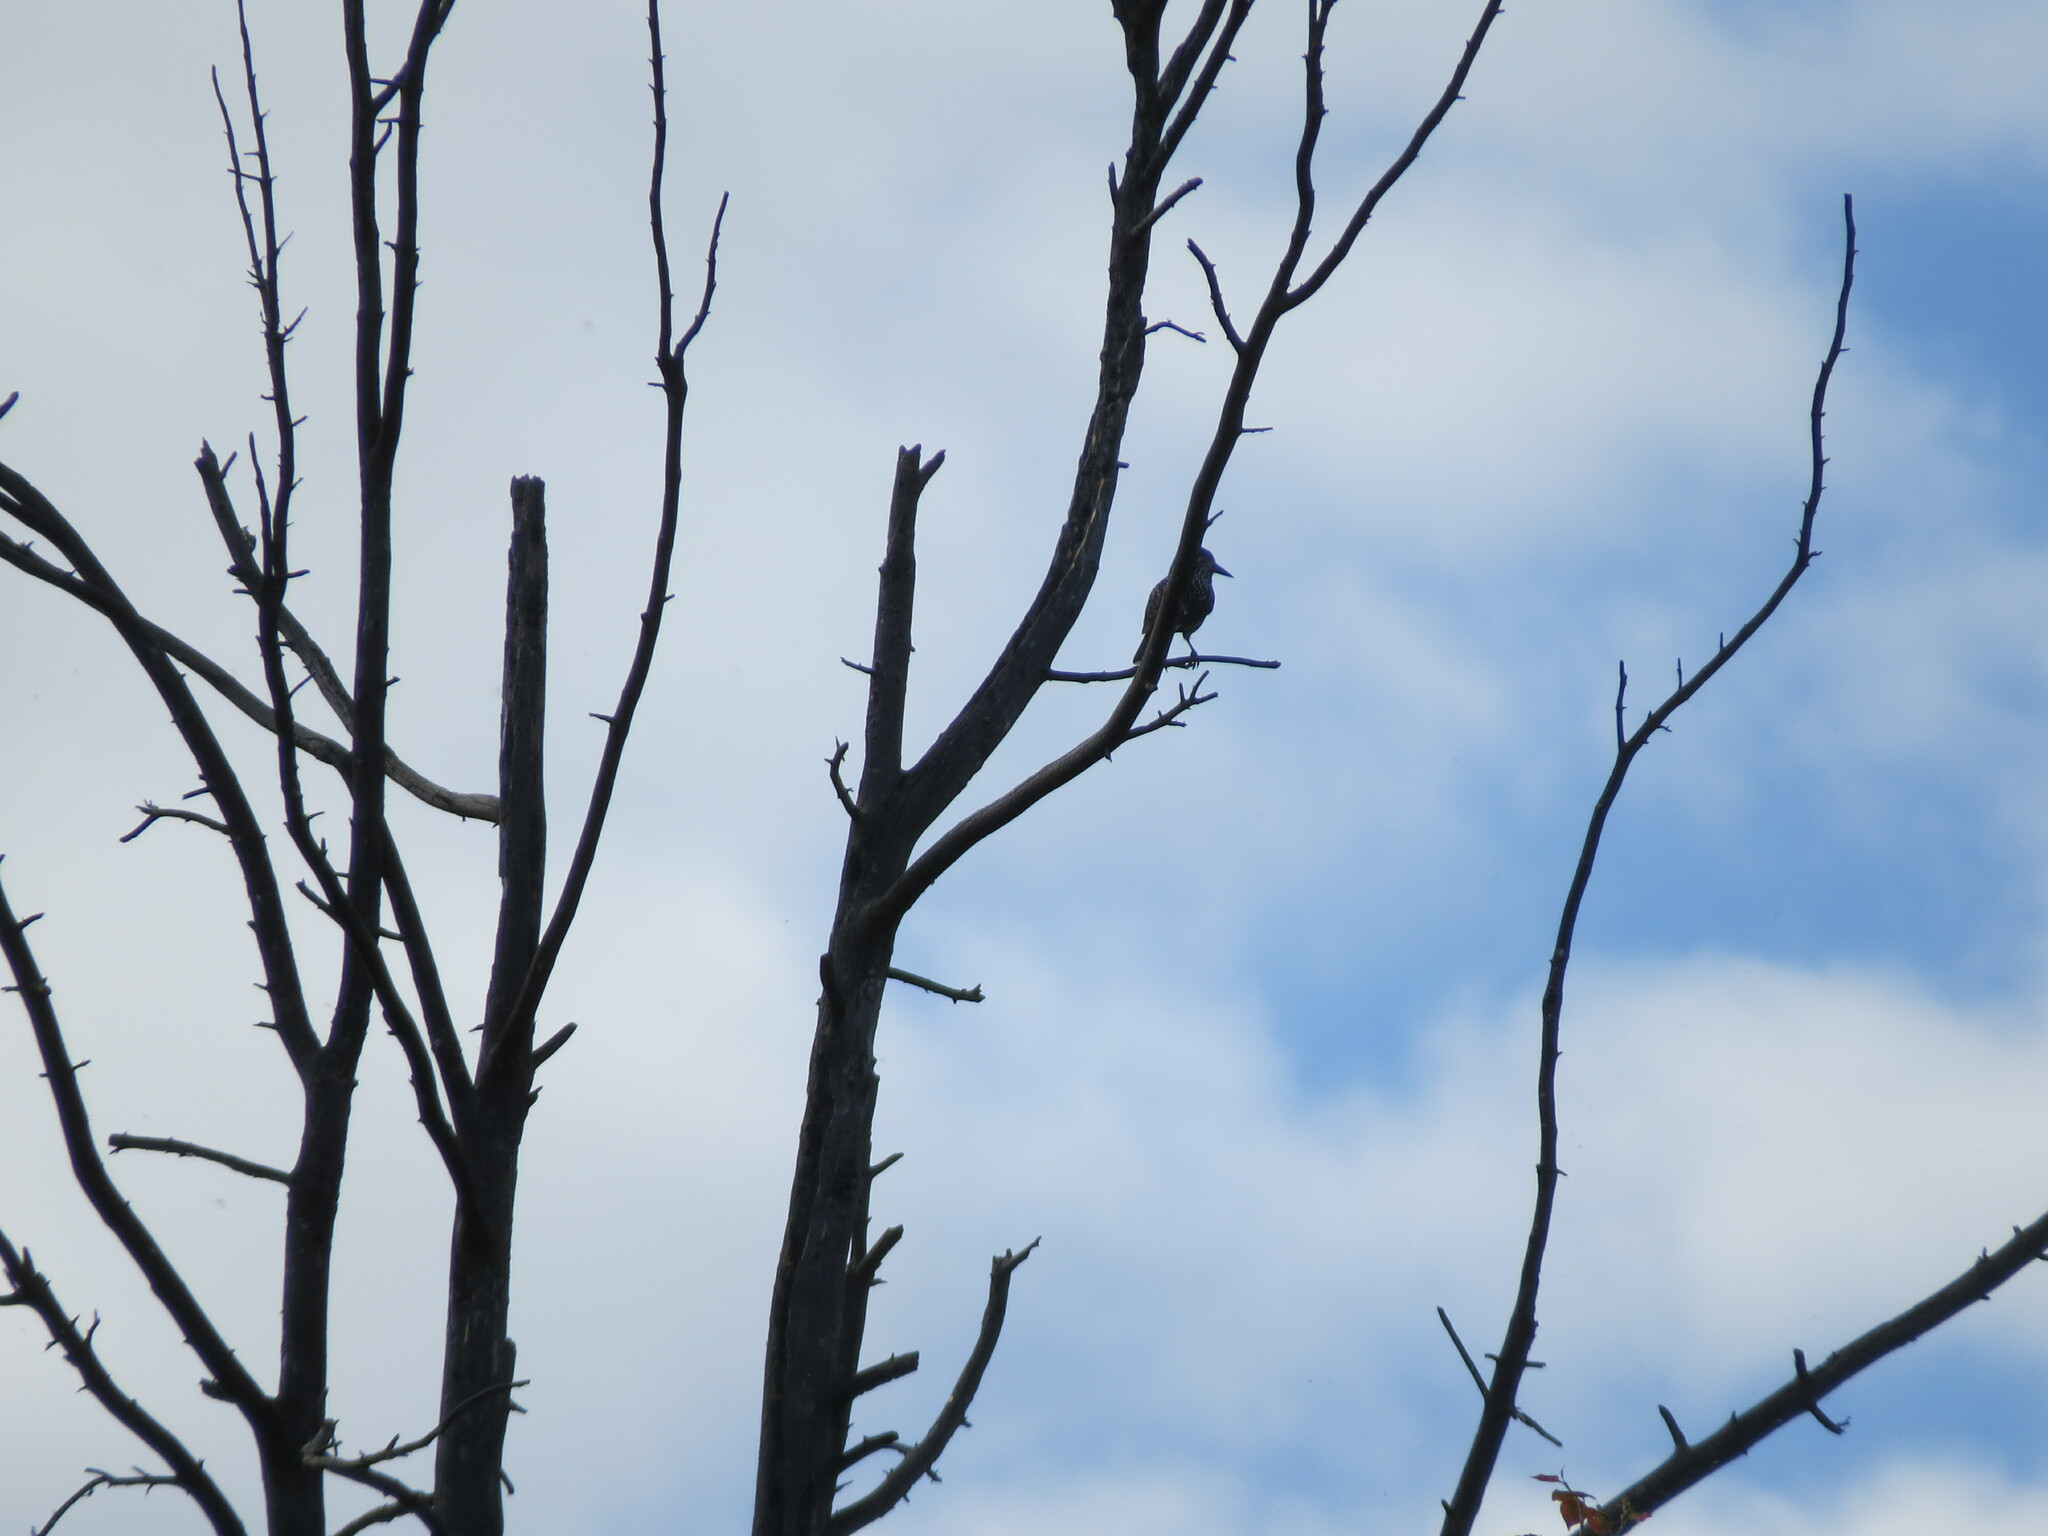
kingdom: Animalia
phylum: Chordata
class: Aves
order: Passeriformes
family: Corvidae
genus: Nucifraga
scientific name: Nucifraga caryocatactes
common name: Spotted nutcracker
